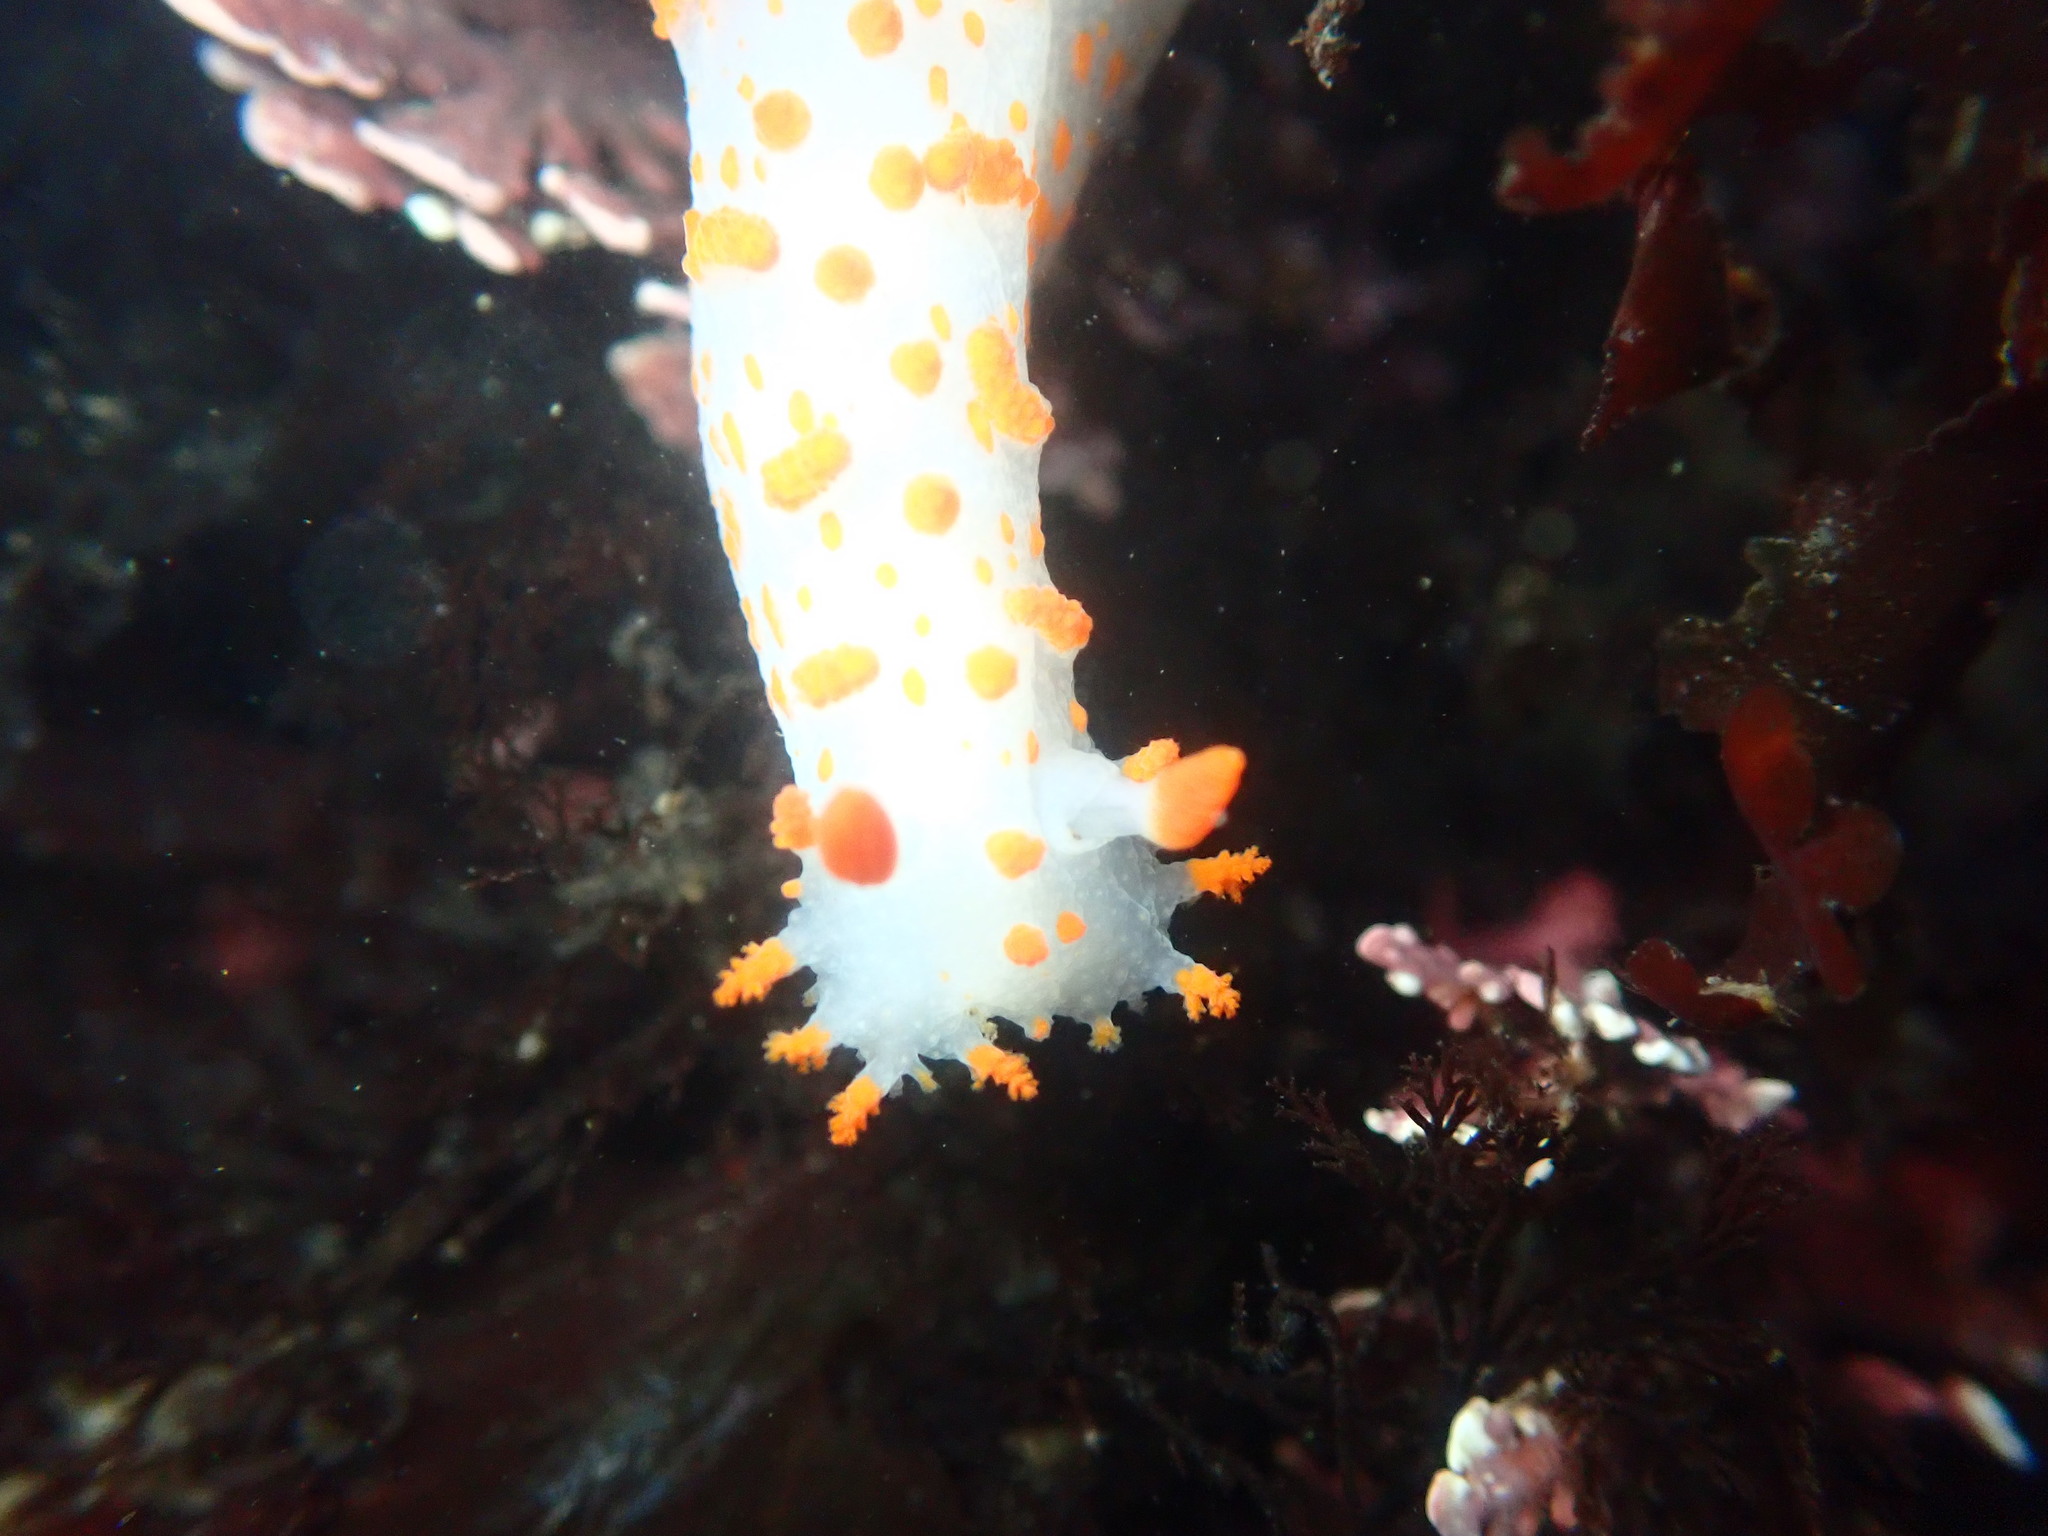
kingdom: Animalia
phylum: Mollusca
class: Gastropoda
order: Nudibranchia
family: Polyceridae
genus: Triopha
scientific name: Triopha catalinae
